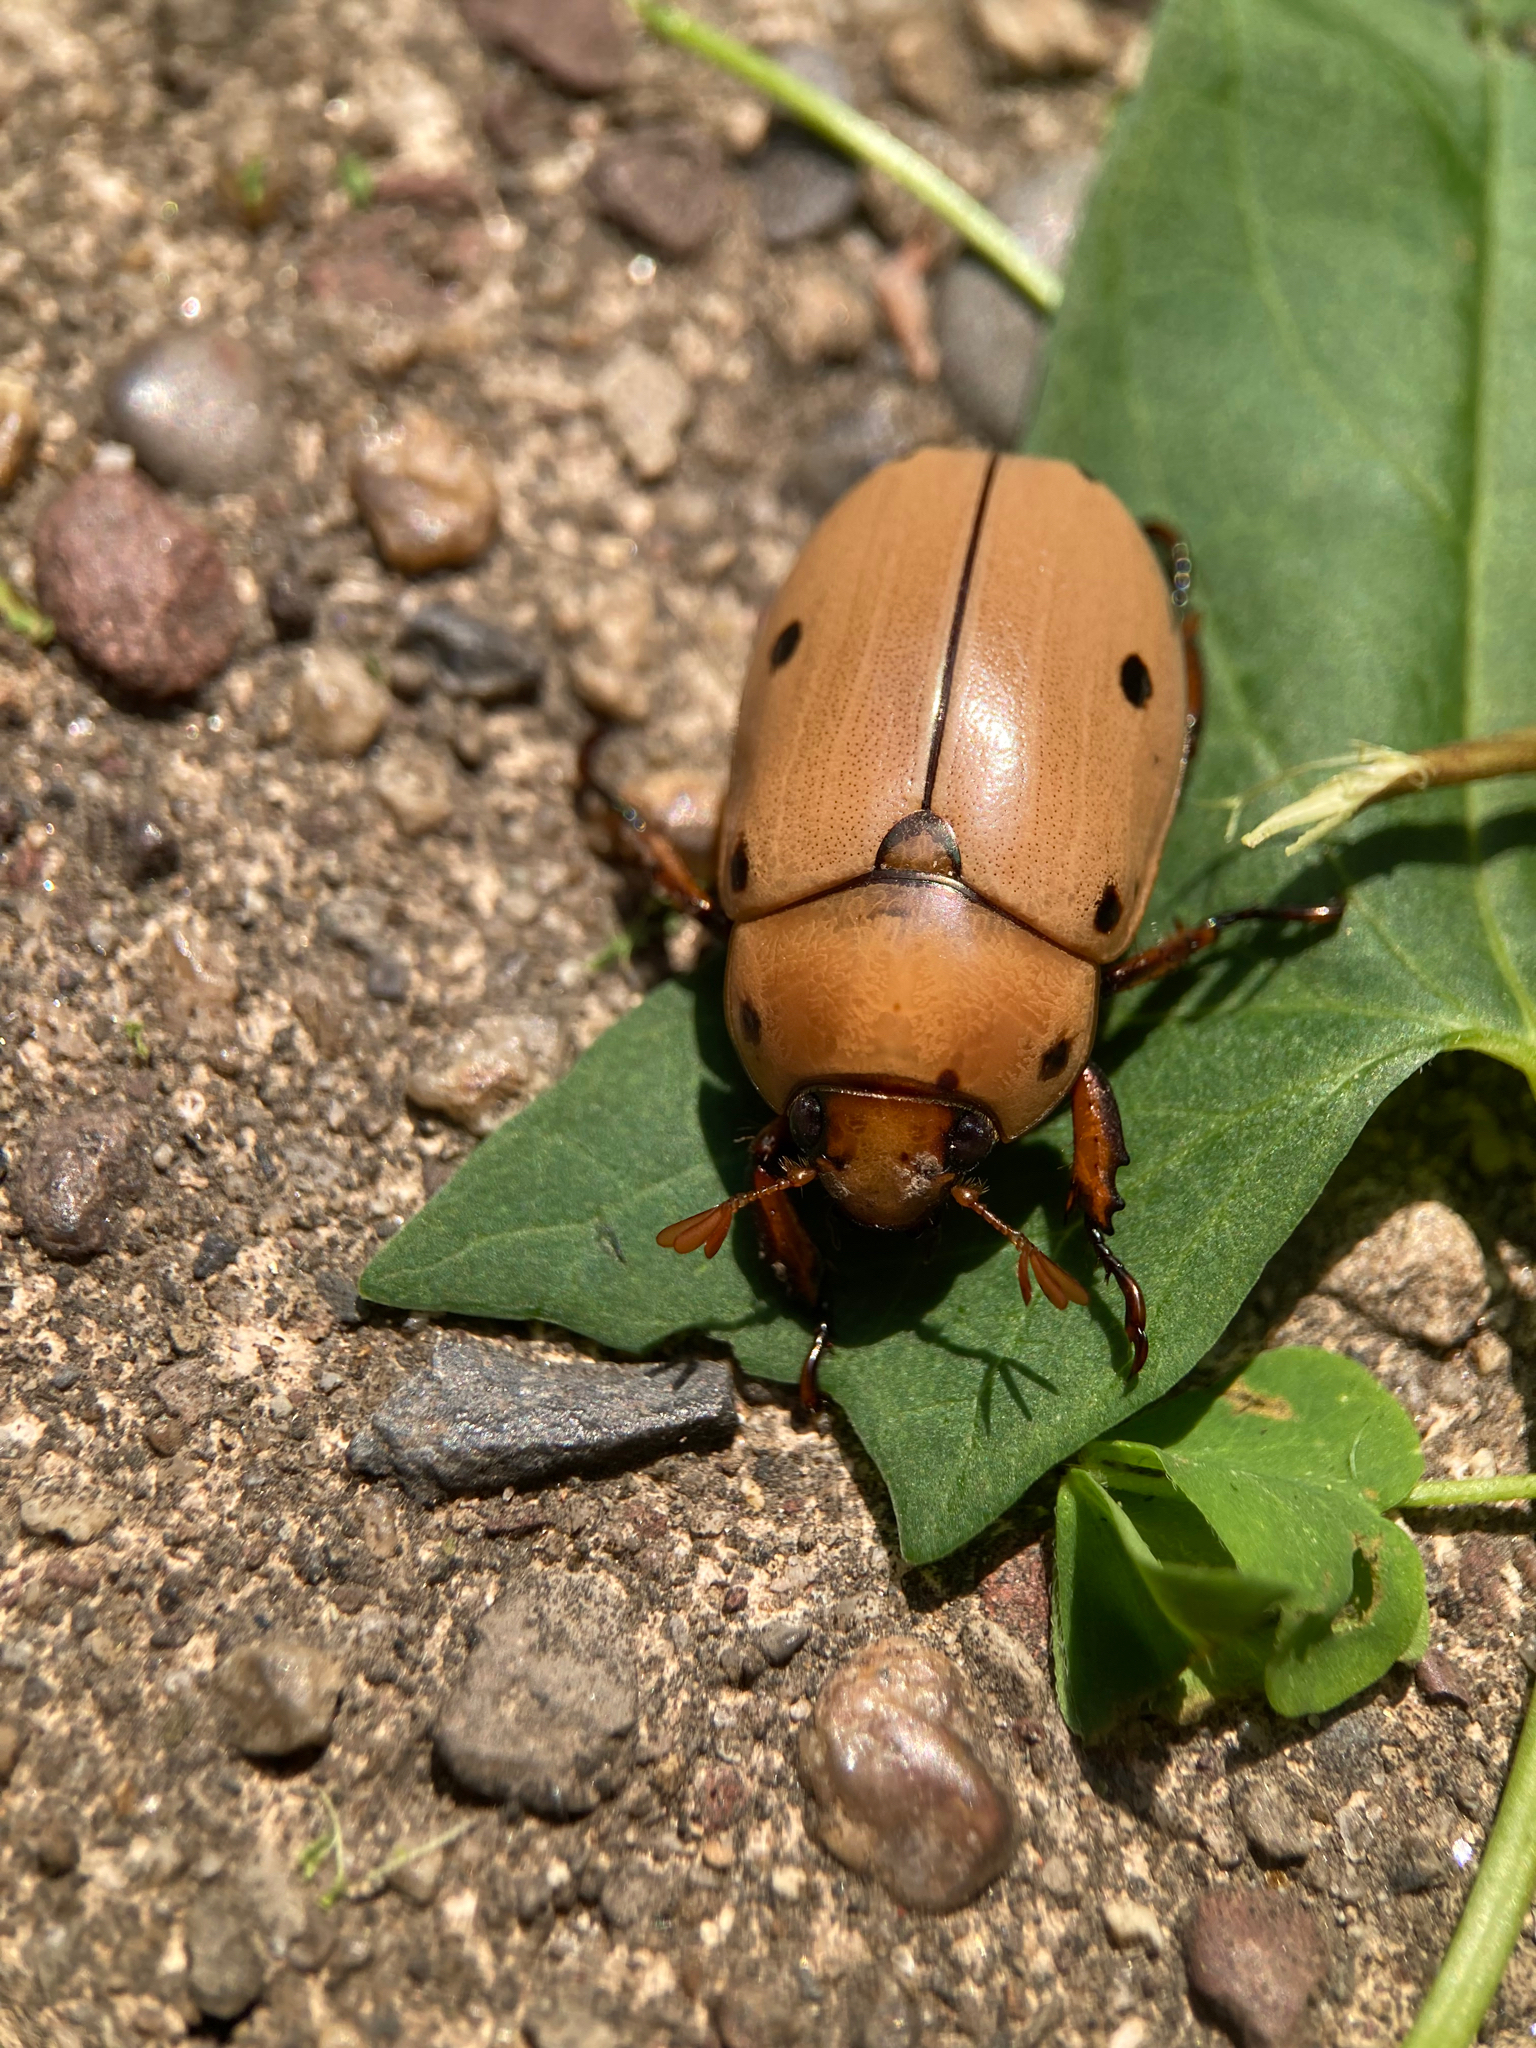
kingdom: Animalia
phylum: Arthropoda
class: Insecta
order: Coleoptera
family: Scarabaeidae
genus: Pelidnota
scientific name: Pelidnota punctata
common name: Grapevine beetle
